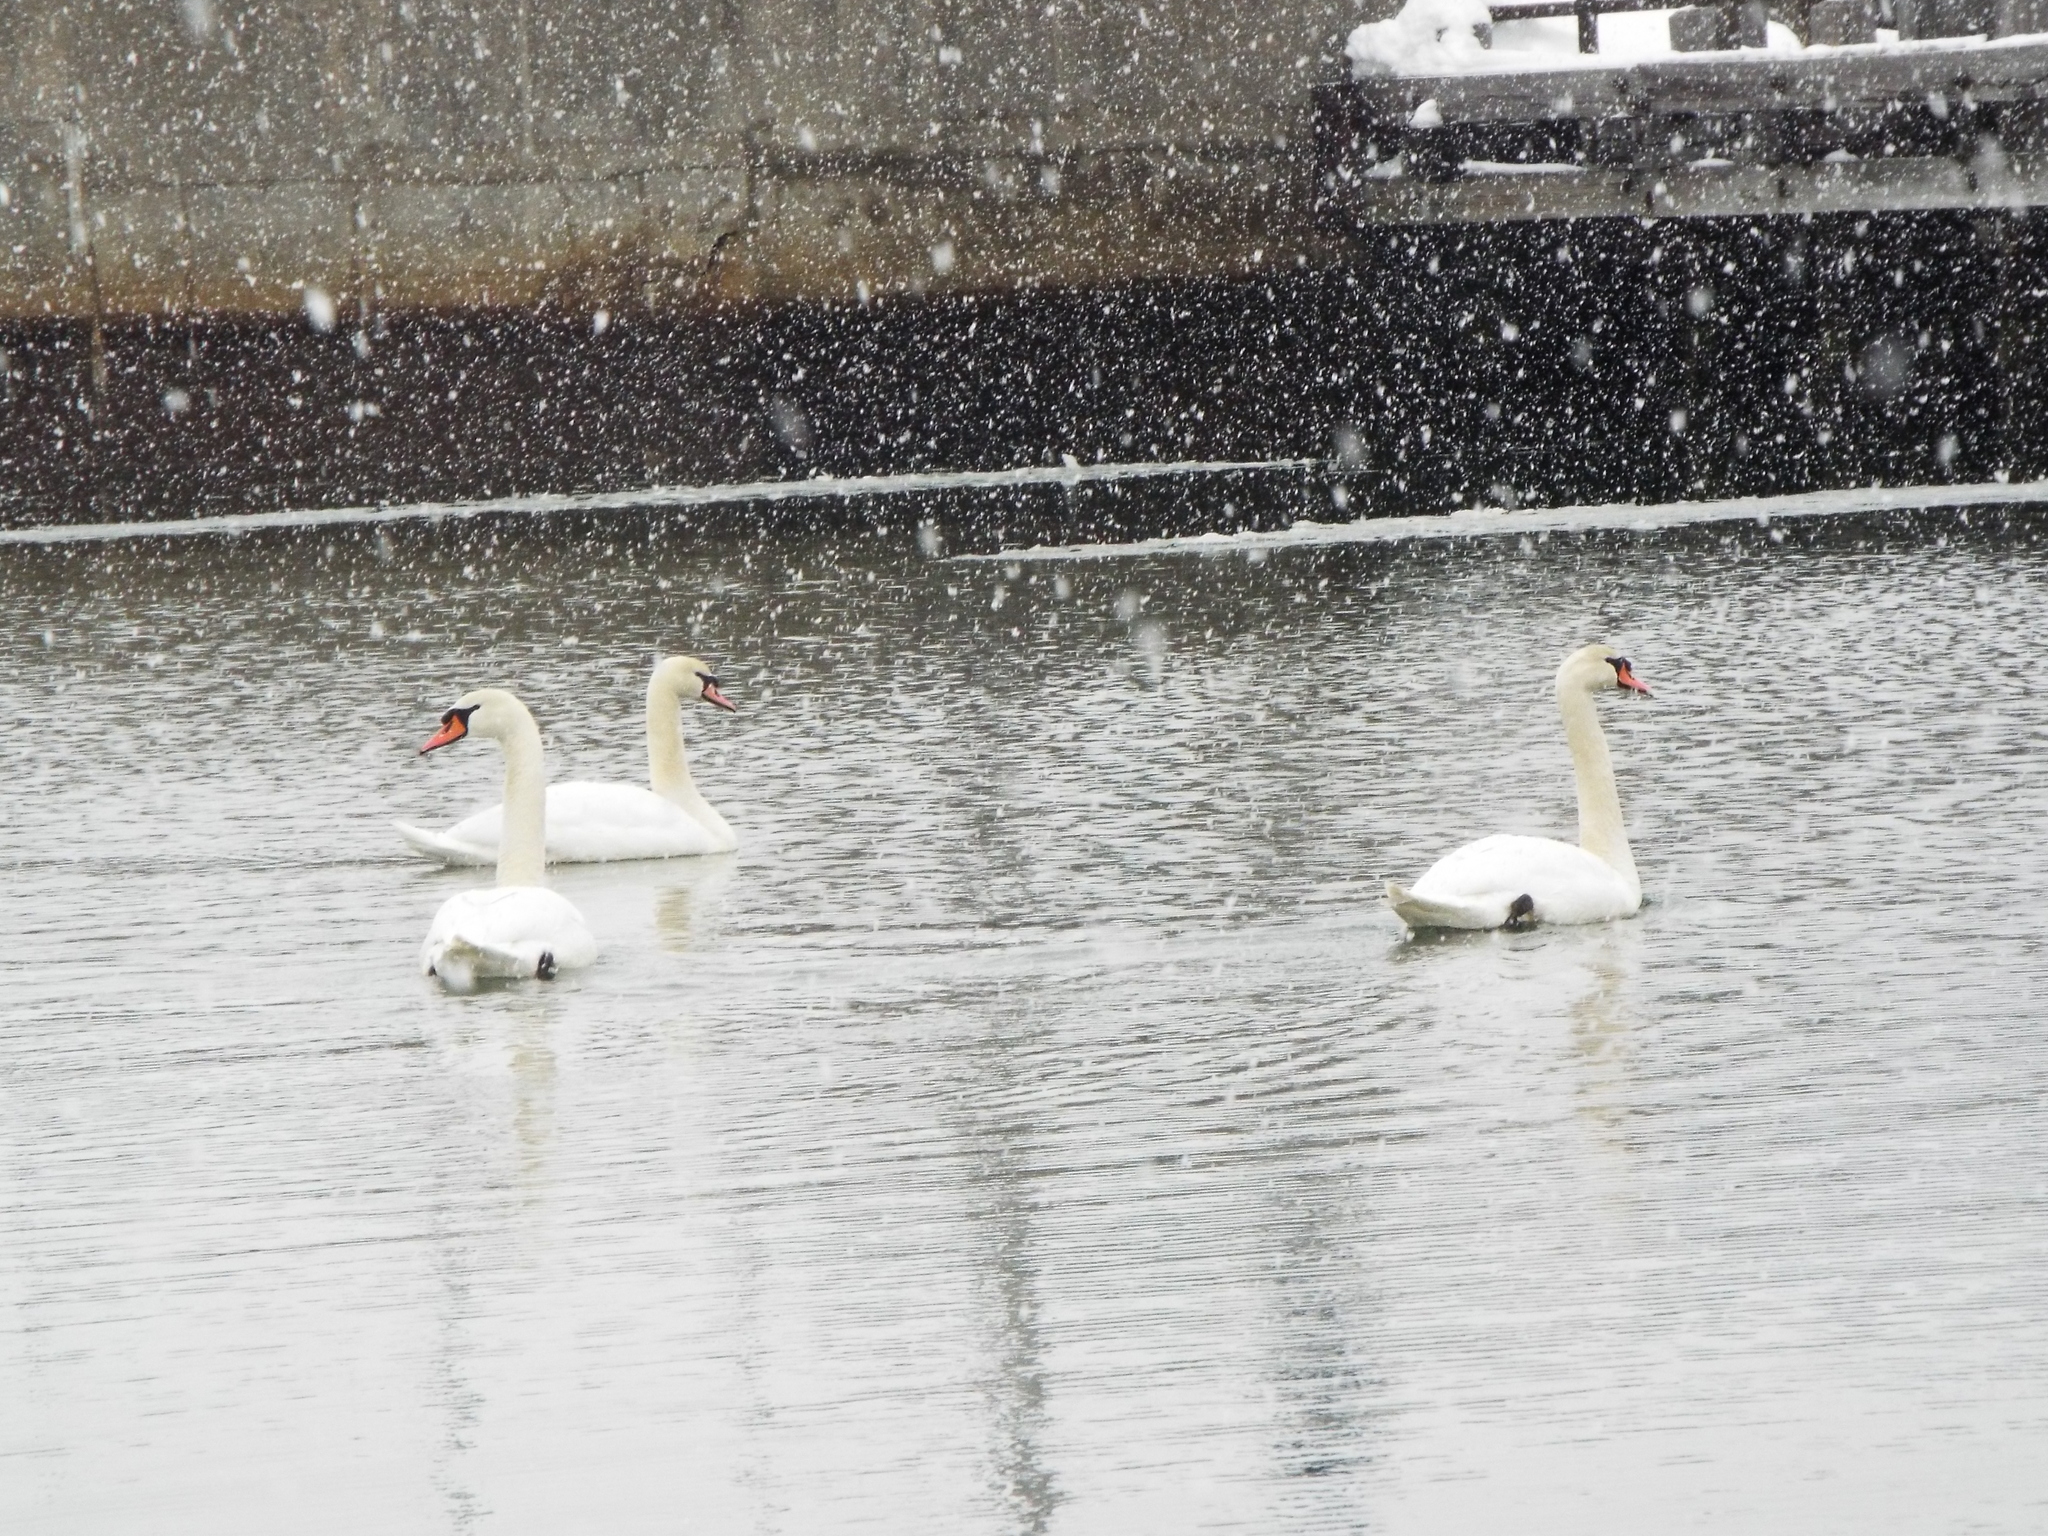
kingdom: Animalia
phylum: Chordata
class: Aves
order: Anseriformes
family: Anatidae
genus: Cygnus
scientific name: Cygnus olor
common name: Mute swan
